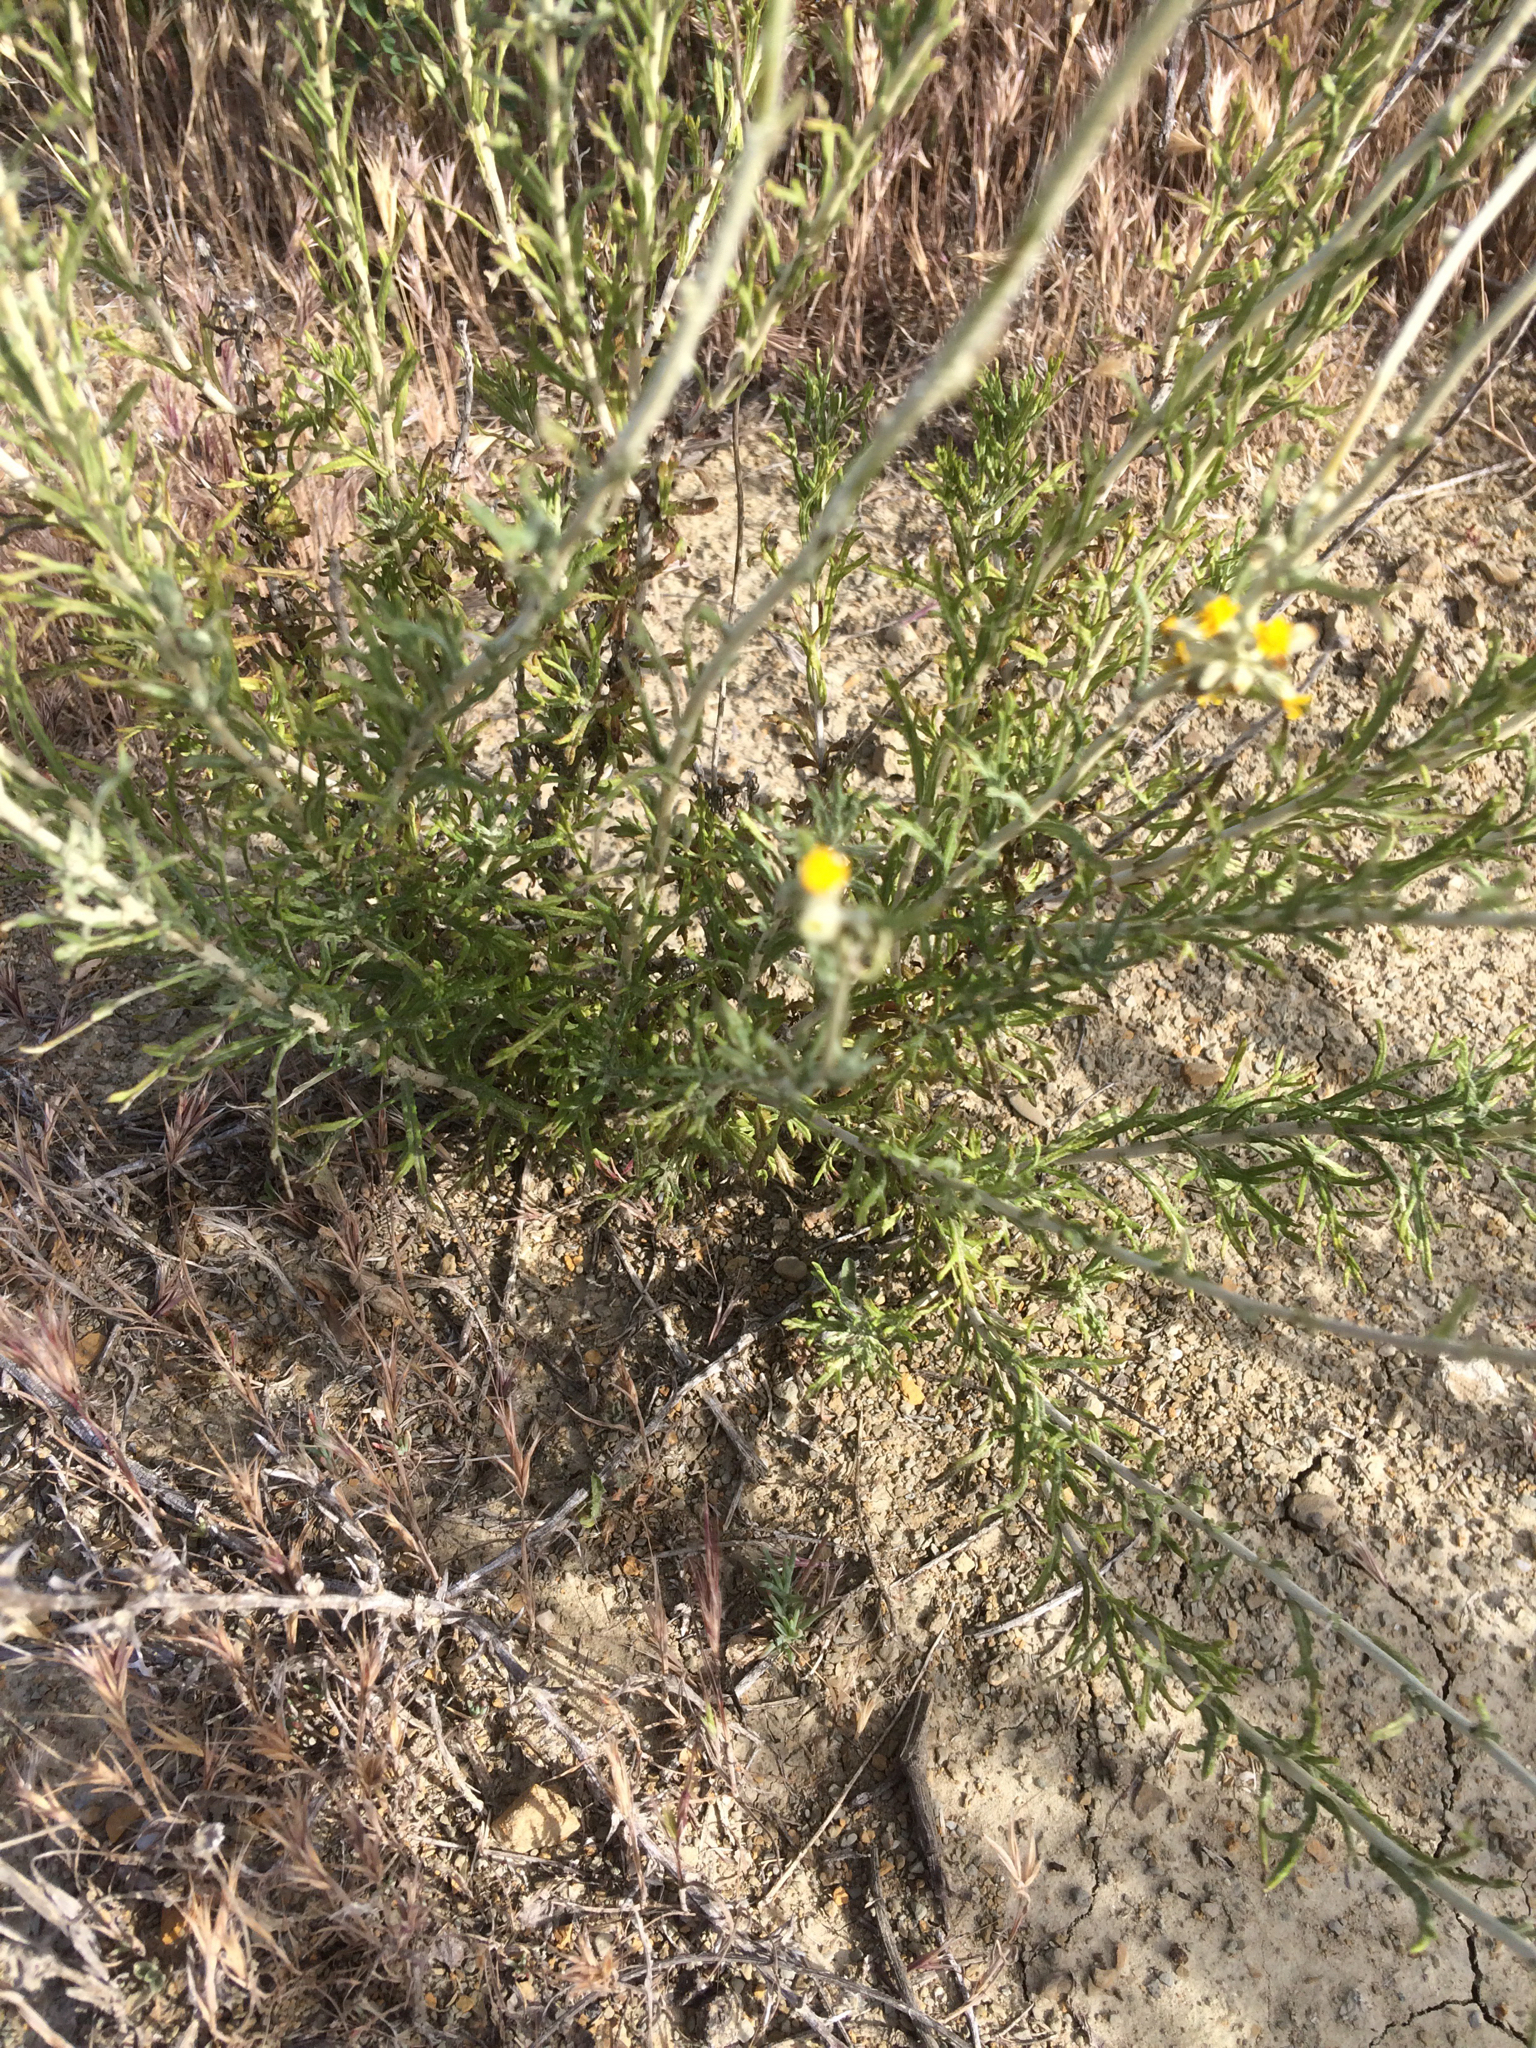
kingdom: Plantae
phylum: Tracheophyta
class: Magnoliopsida
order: Asterales
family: Asteraceae
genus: Eriophyllum
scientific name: Eriophyllum confertiflorum
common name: Golden-yarrow
